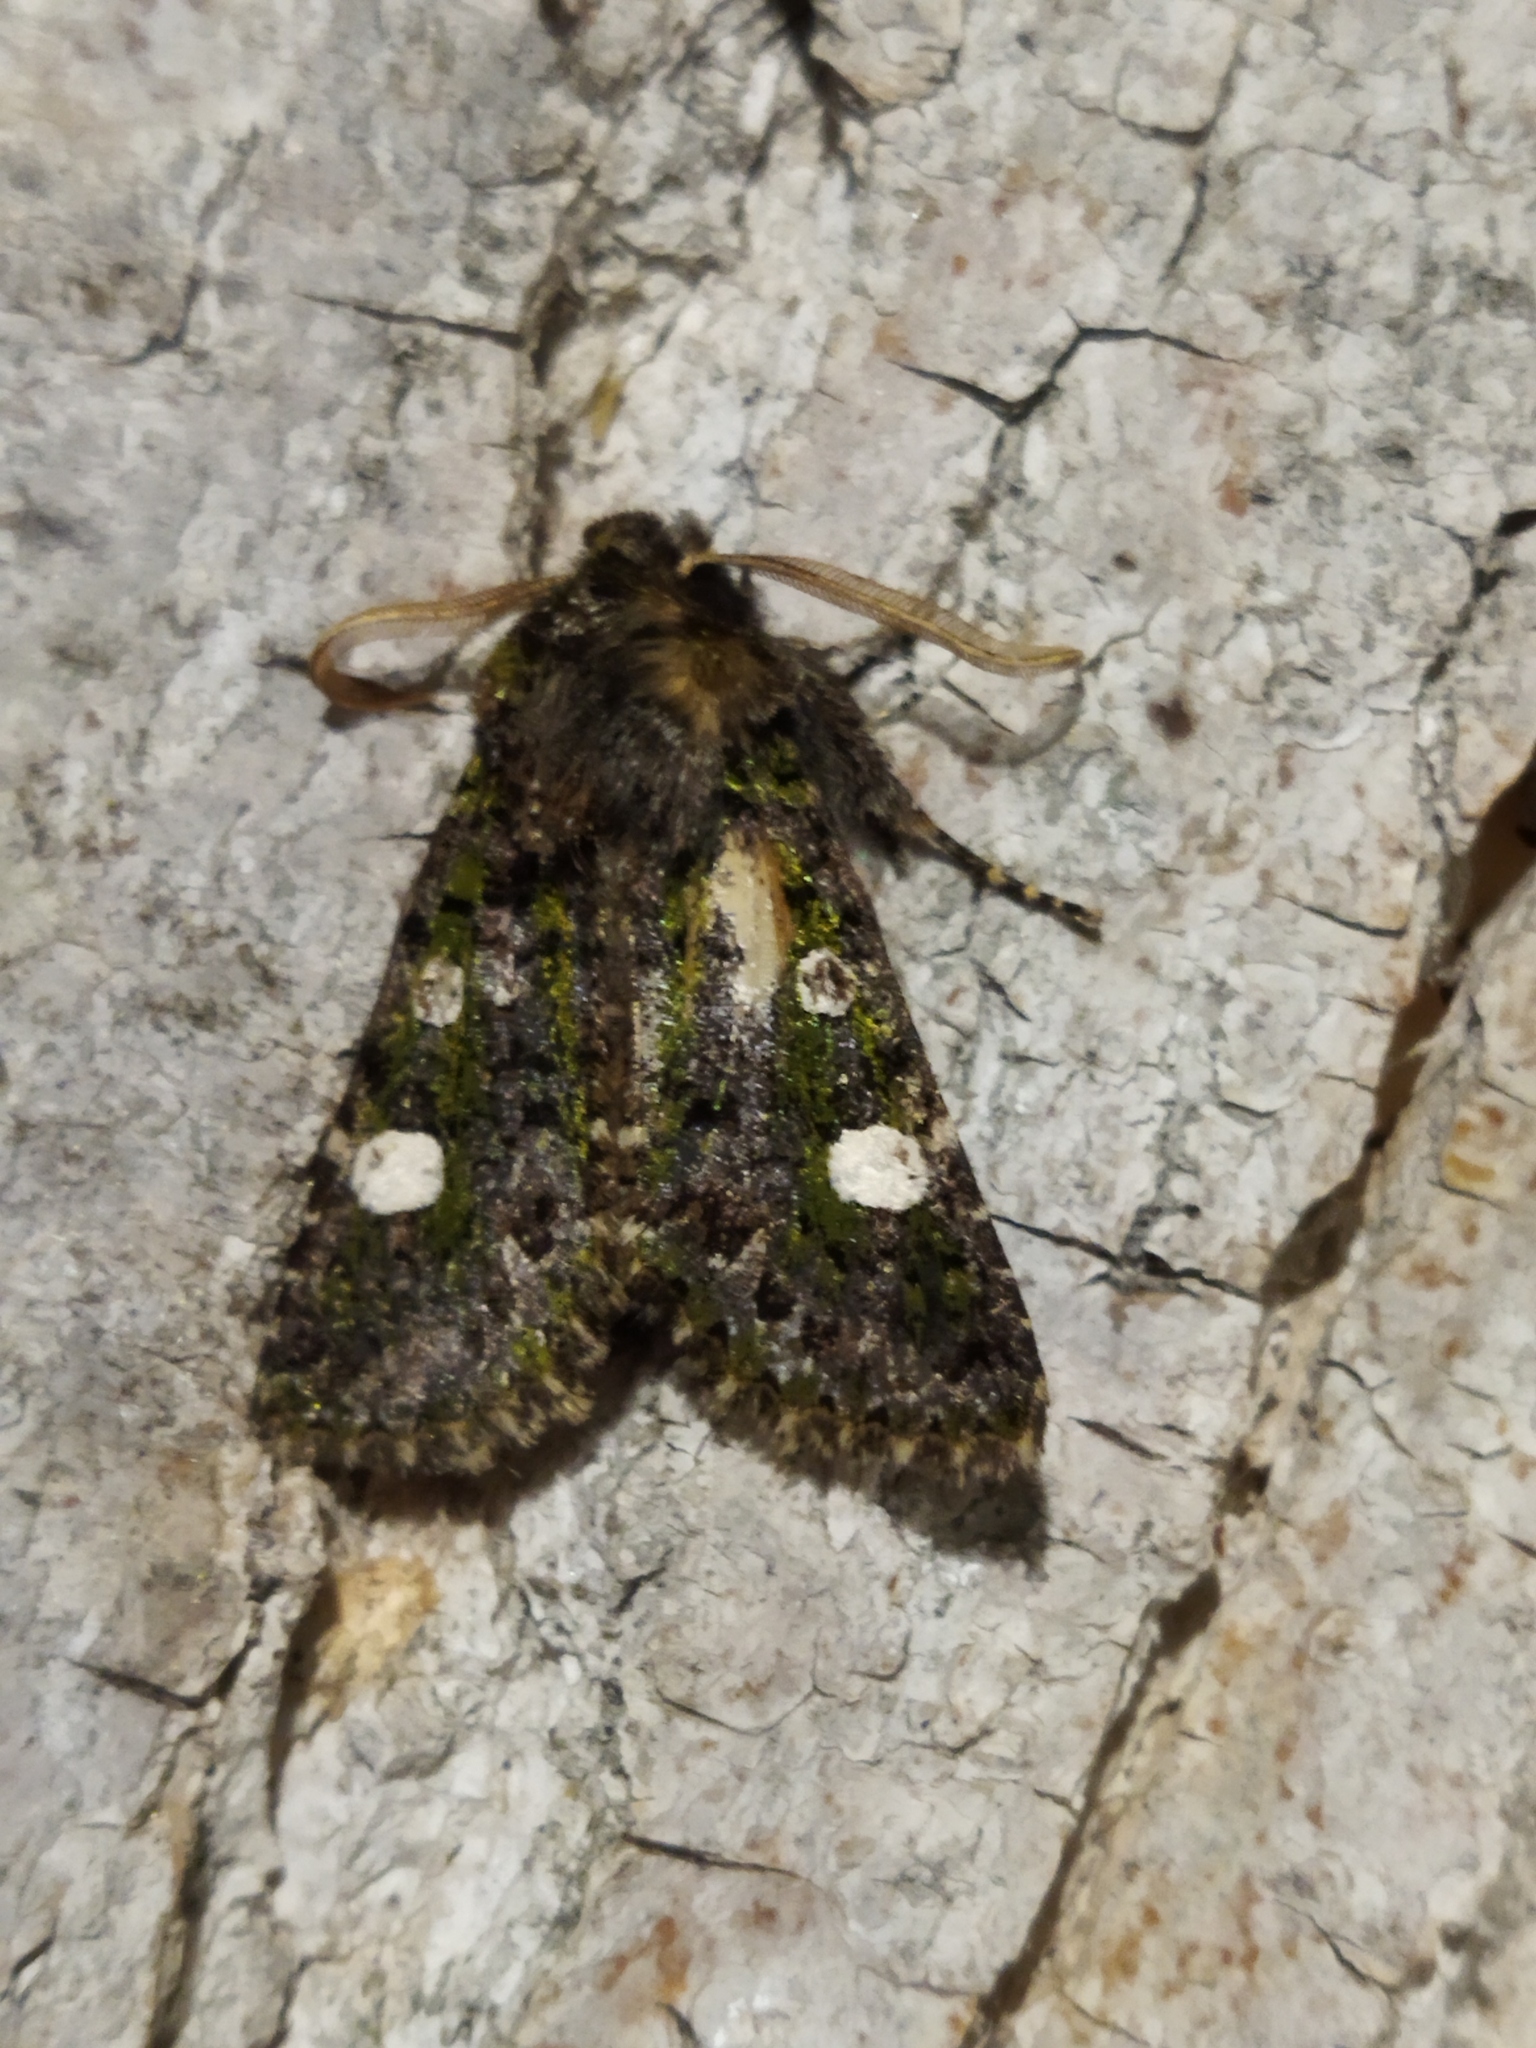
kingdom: Animalia
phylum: Arthropoda
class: Insecta
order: Lepidoptera
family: Noctuidae
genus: Valeria
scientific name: Valeria oleagina
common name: Green-brindled dot
